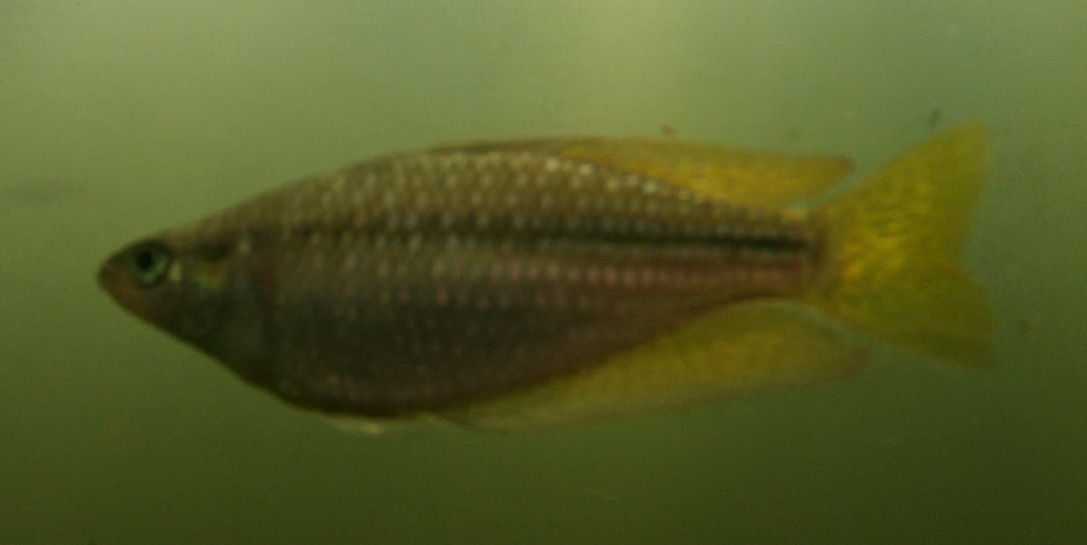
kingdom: Animalia
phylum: Chordata
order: Atheriniformes
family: Melanotaeniidae
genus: Melanotaenia
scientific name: Melanotaenia splendida
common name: Checkered rainbowfish
